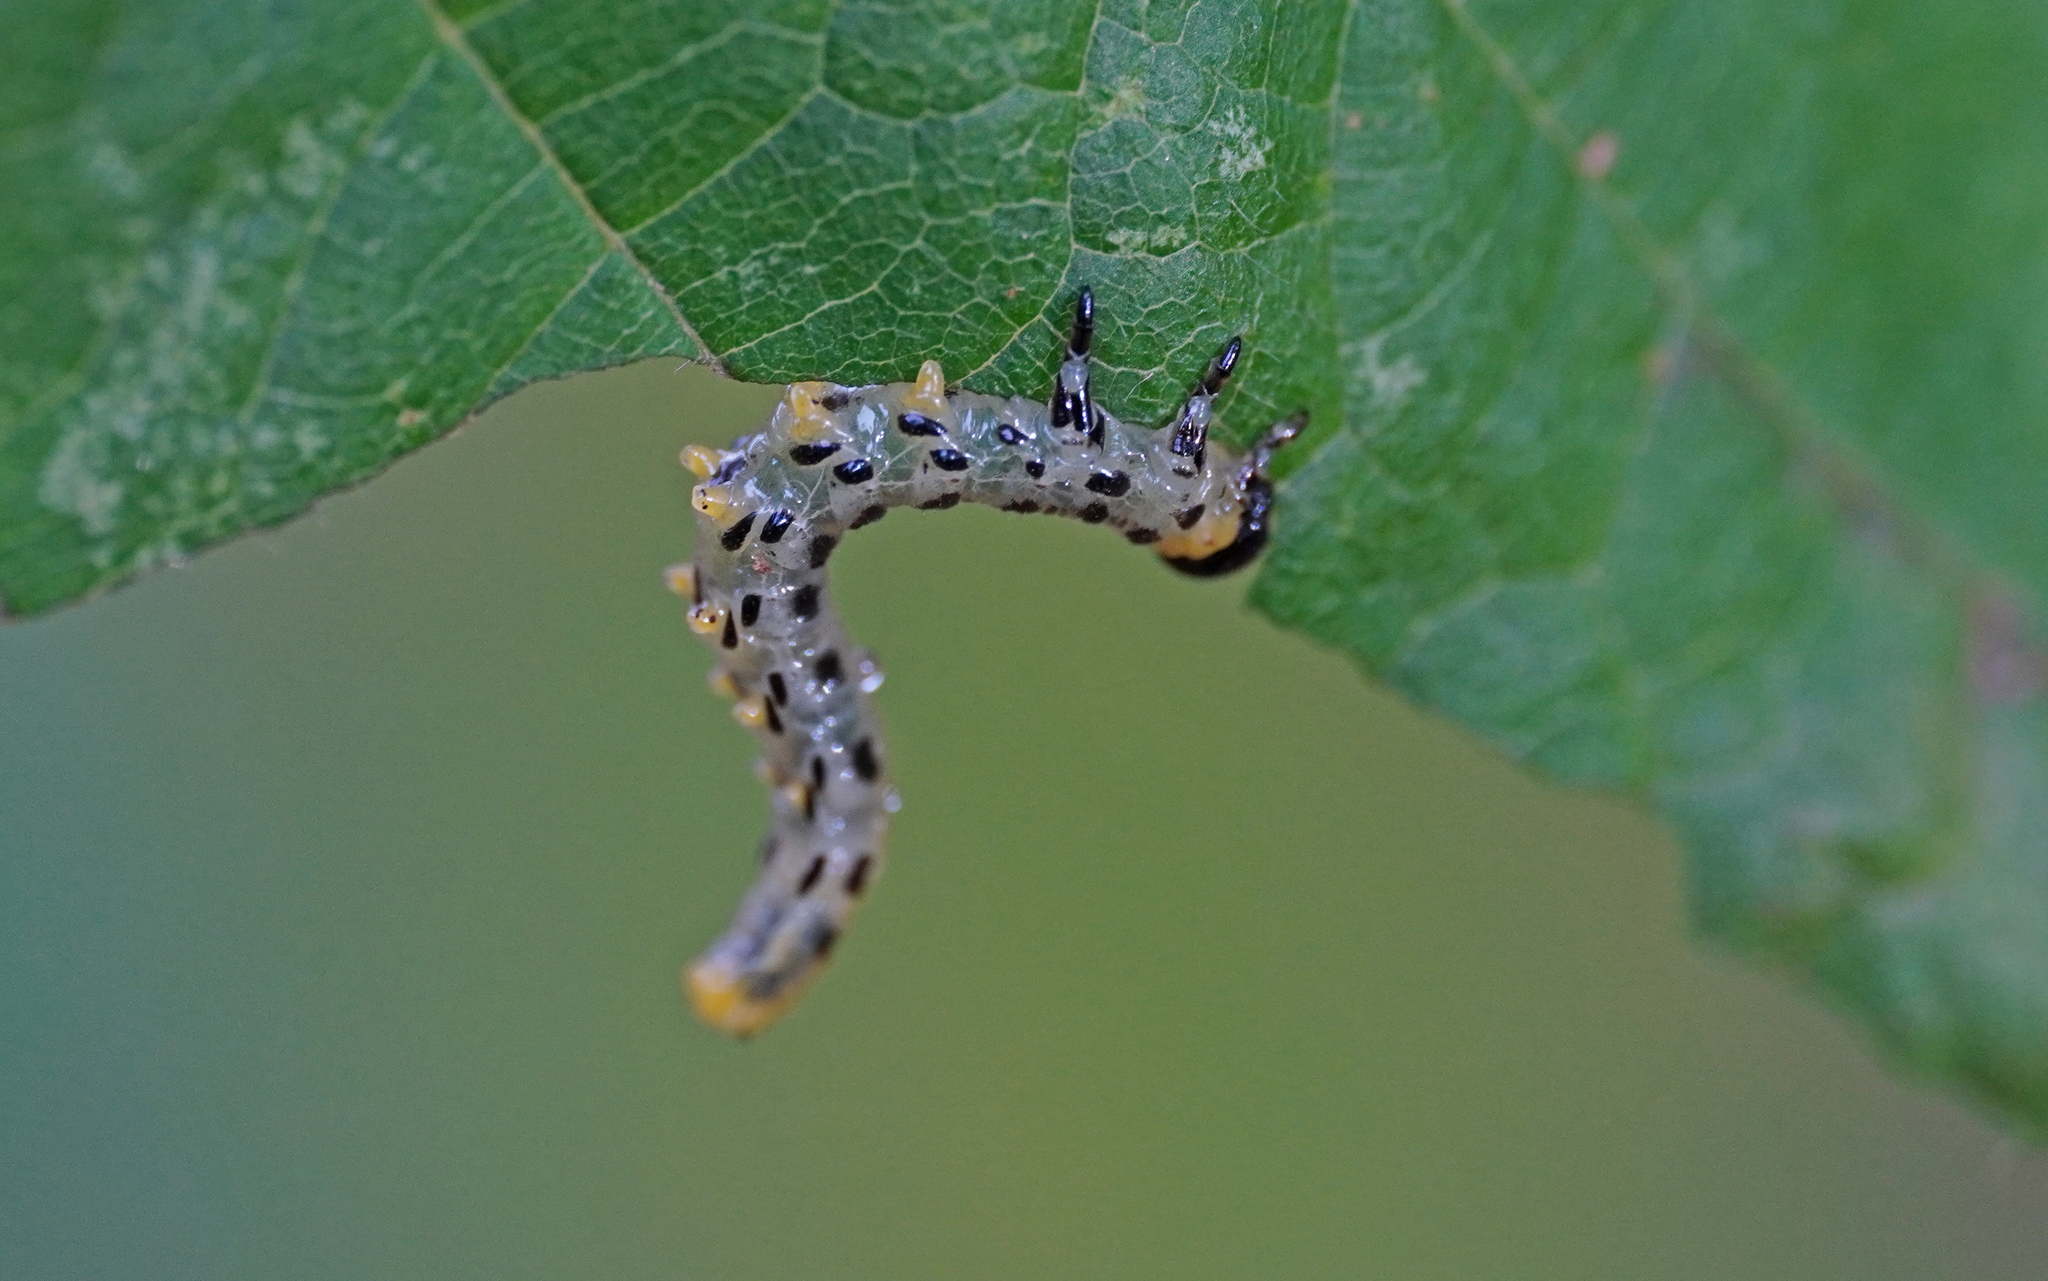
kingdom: Animalia
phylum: Arthropoda
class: Insecta
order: Hymenoptera
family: Tenthredinidae
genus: Craesus
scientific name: Craesus septentrionalis
